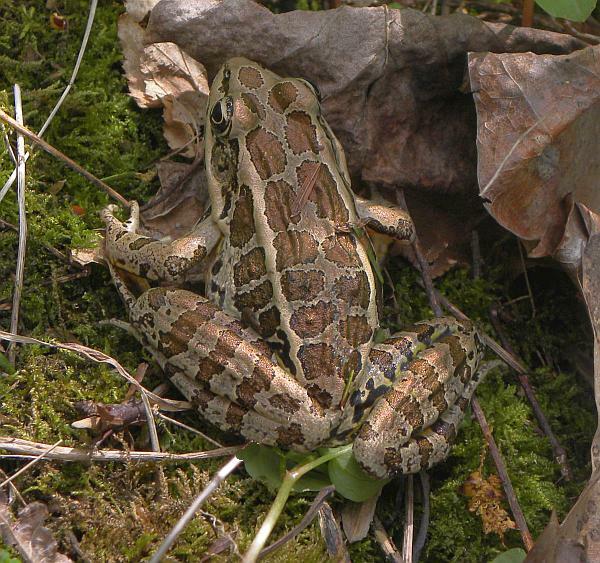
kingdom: Animalia
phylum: Chordata
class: Amphibia
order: Anura
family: Ranidae
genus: Lithobates
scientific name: Lithobates palustris
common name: Pickerel frog
